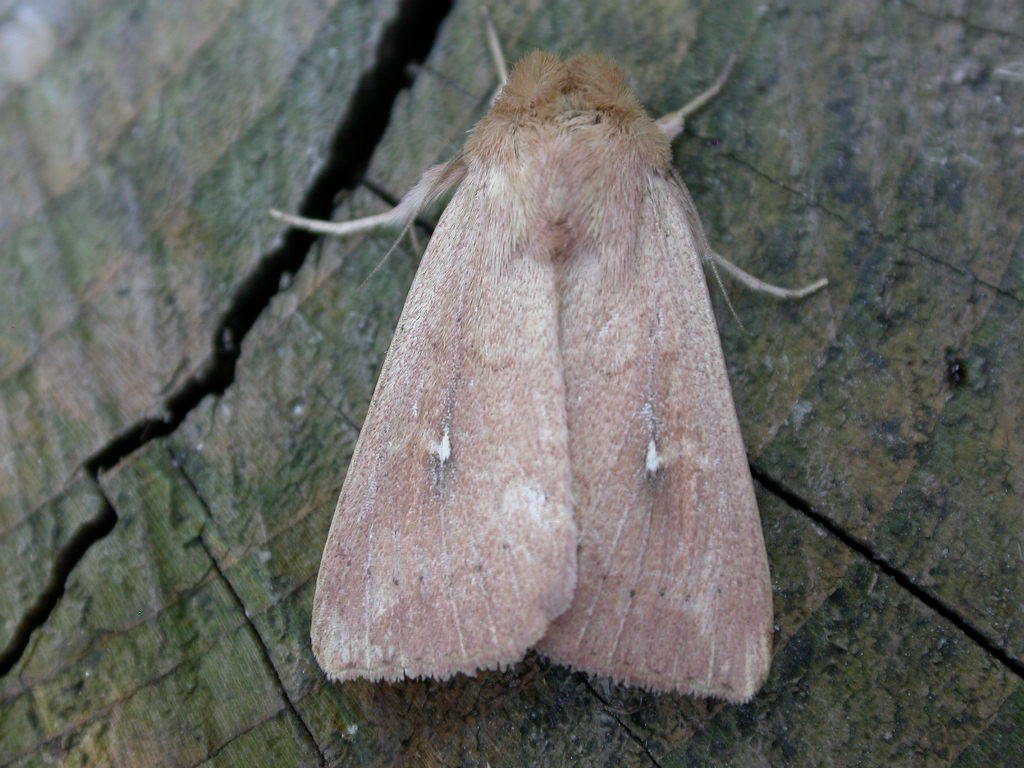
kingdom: Animalia
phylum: Arthropoda
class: Insecta
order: Lepidoptera
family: Noctuidae
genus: Mythimna
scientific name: Mythimna ferrago
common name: Clay
